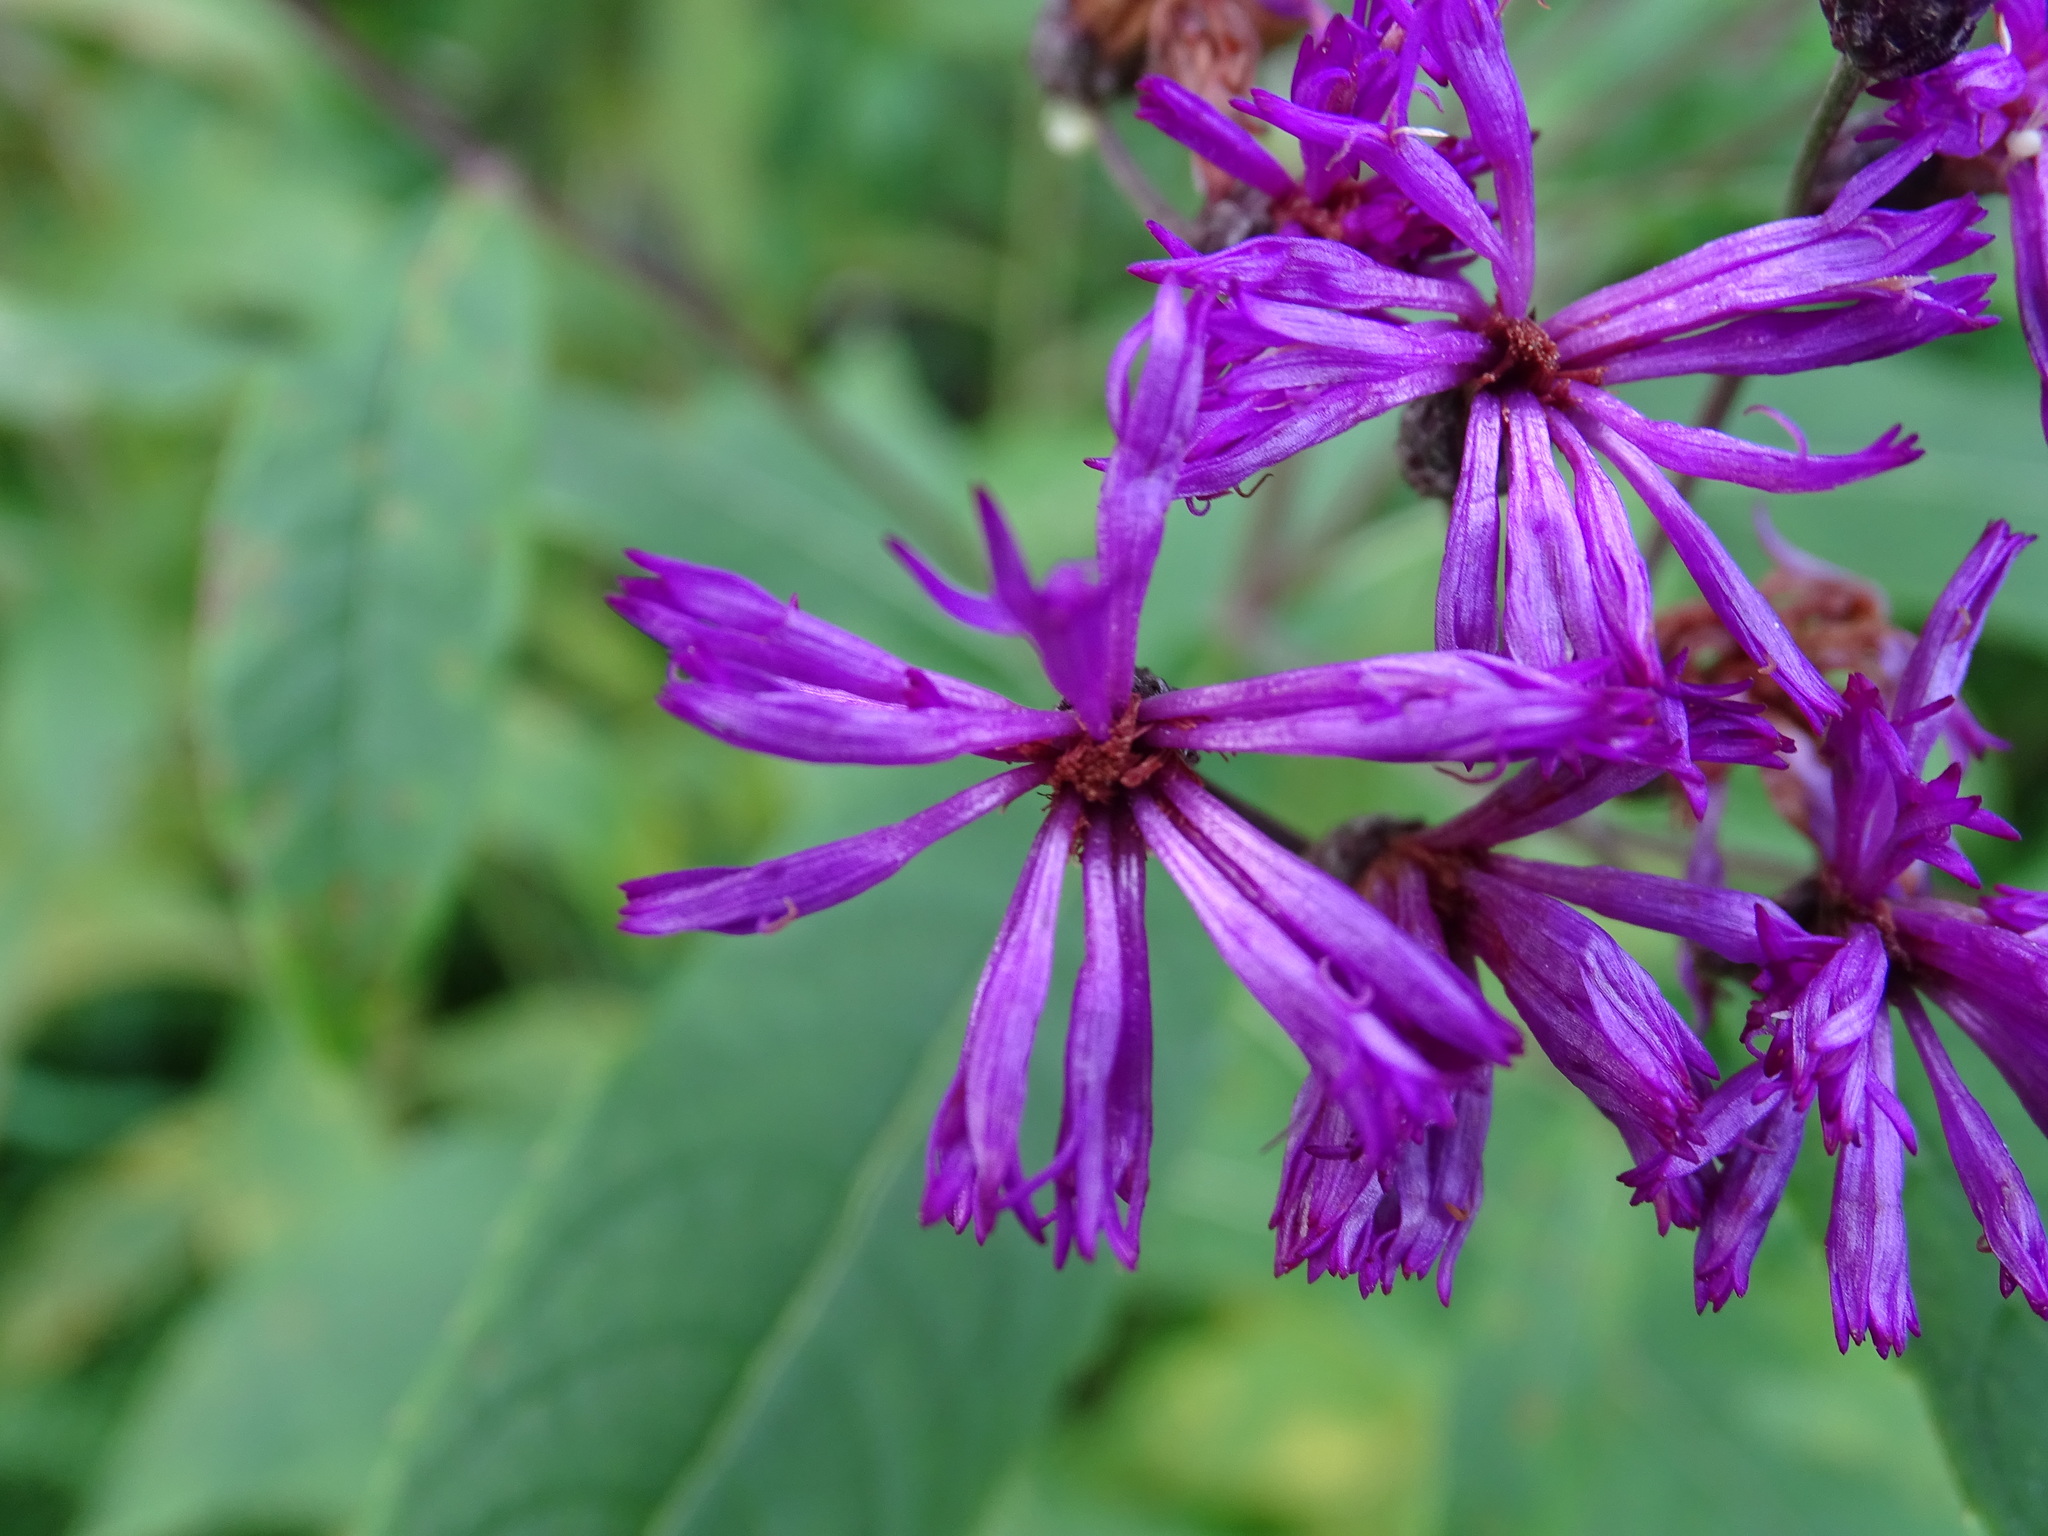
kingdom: Plantae
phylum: Tracheophyta
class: Magnoliopsida
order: Asterales
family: Asteraceae
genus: Vernonia
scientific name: Vernonia noveboracensis
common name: New york ironweed
